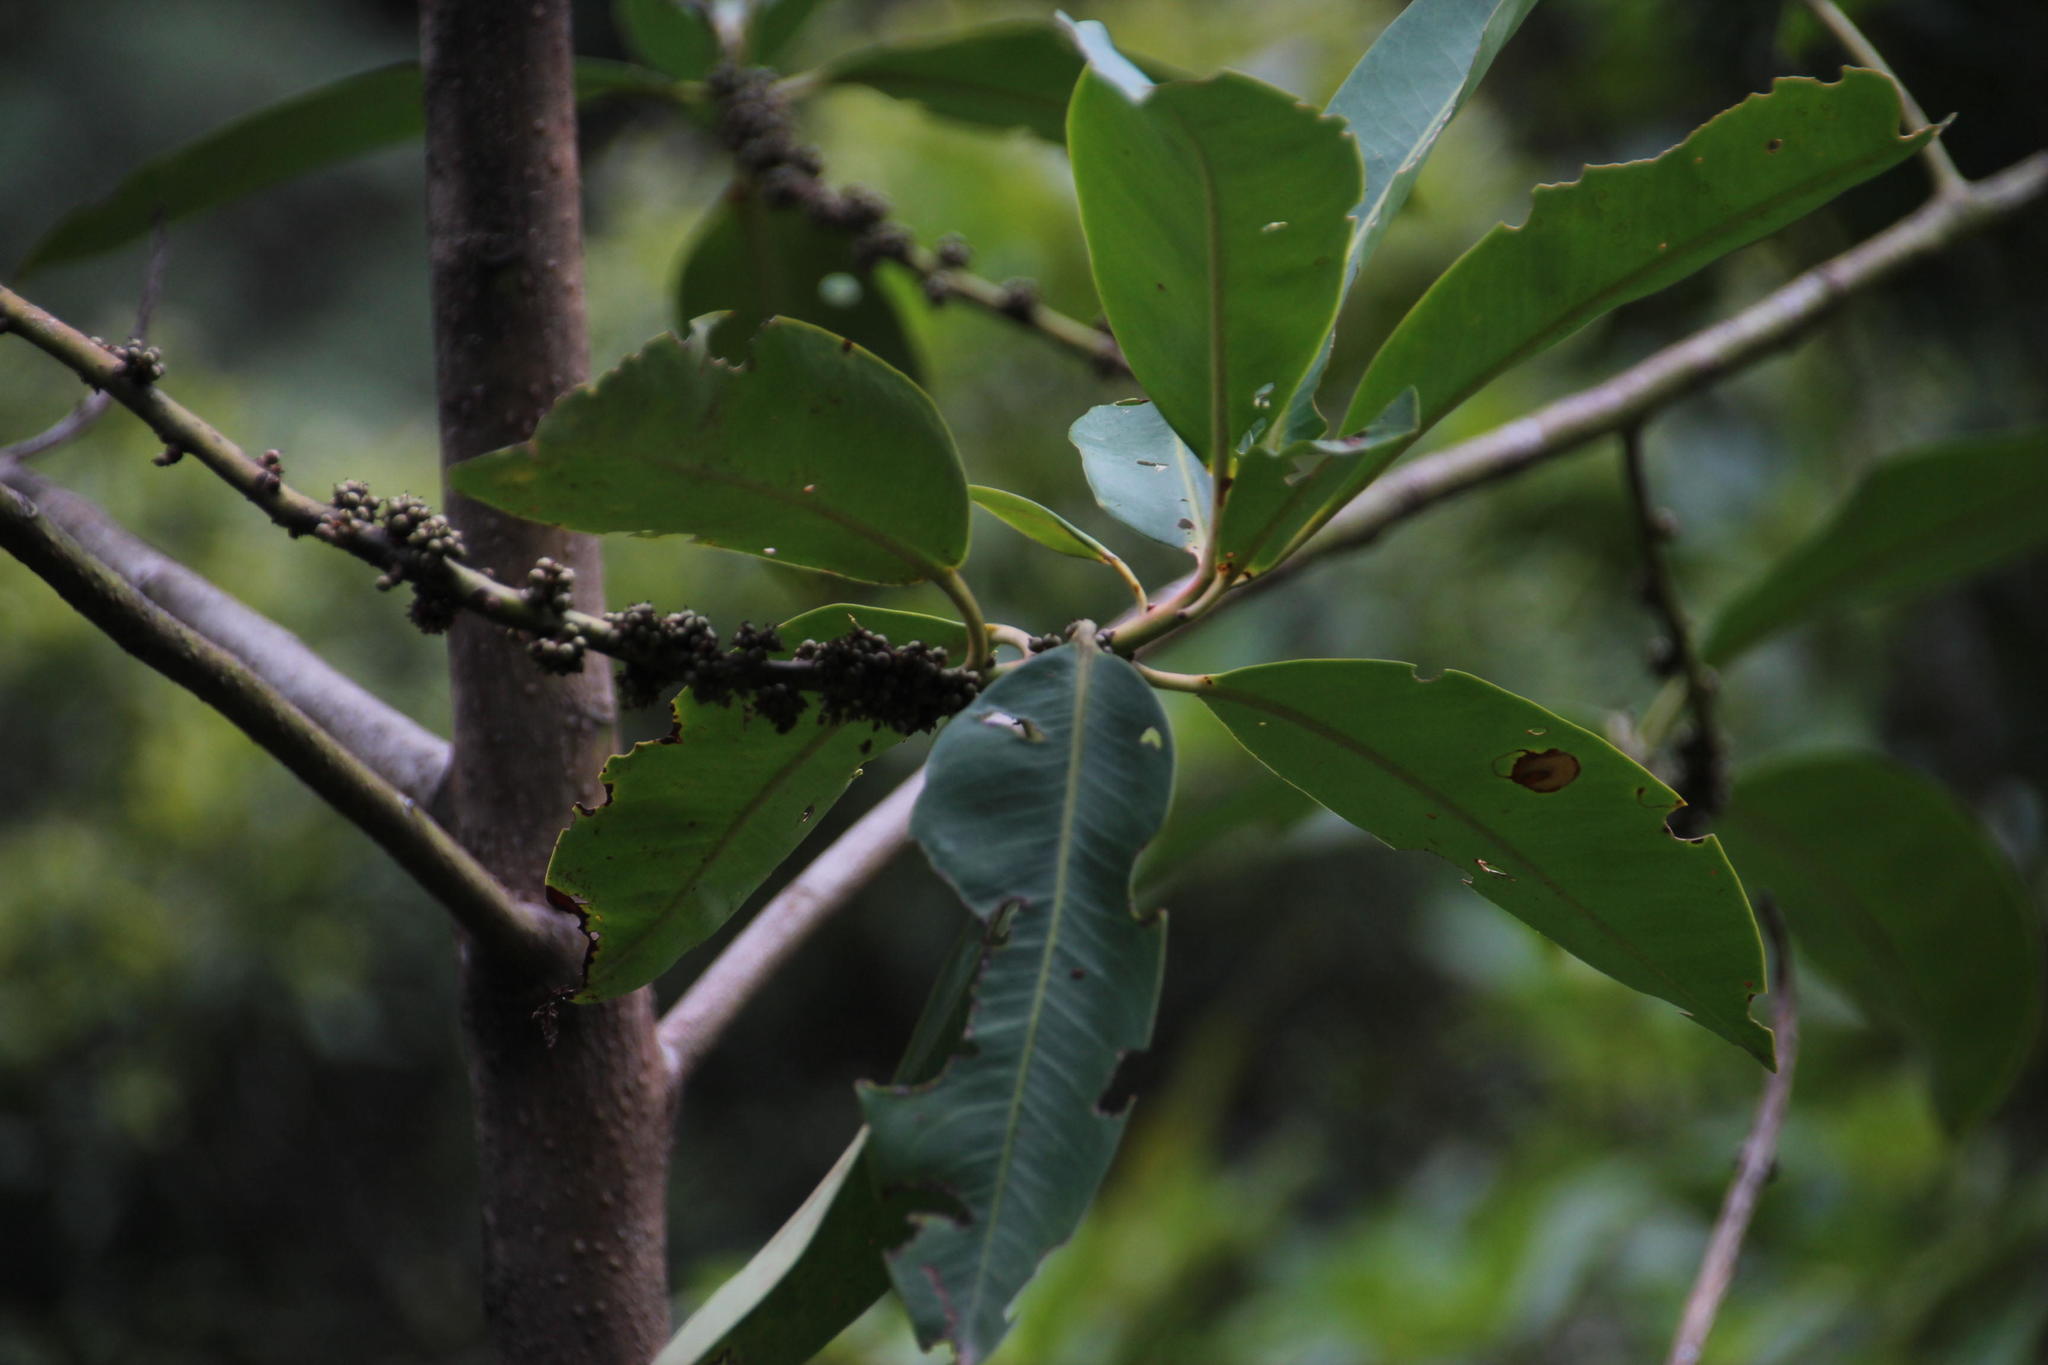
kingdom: Plantae
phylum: Tracheophyta
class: Magnoliopsida
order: Ericales
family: Primulaceae
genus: Myrsine
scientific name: Myrsine latifolia
